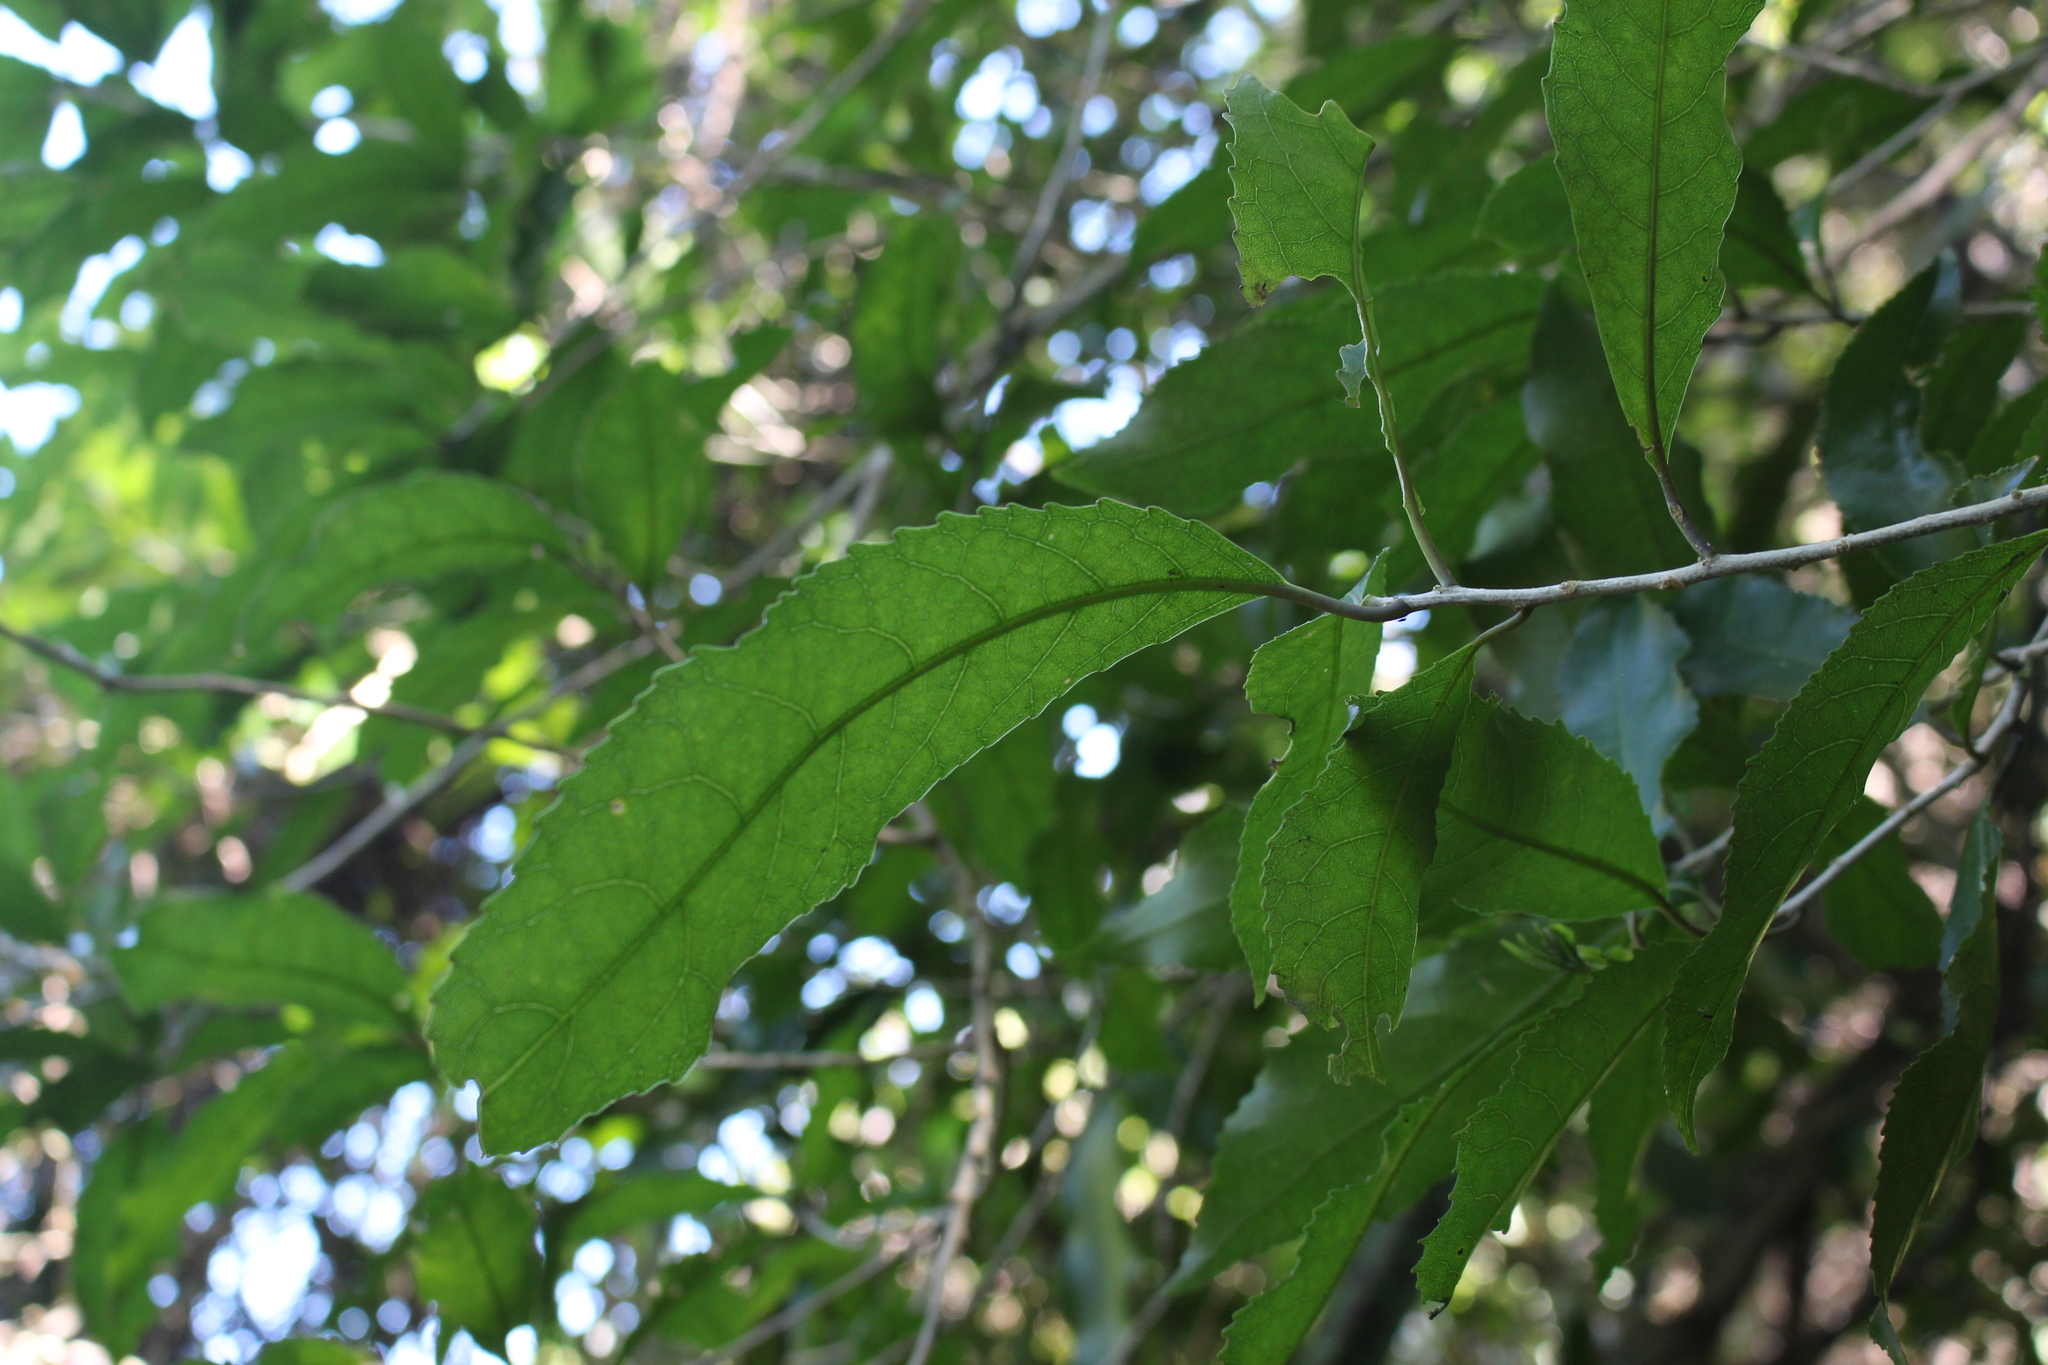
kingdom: Plantae
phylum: Tracheophyta
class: Magnoliopsida
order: Malpighiales
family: Violaceae
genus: Melicytus
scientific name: Melicytus ramiflorus
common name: Mahoe
